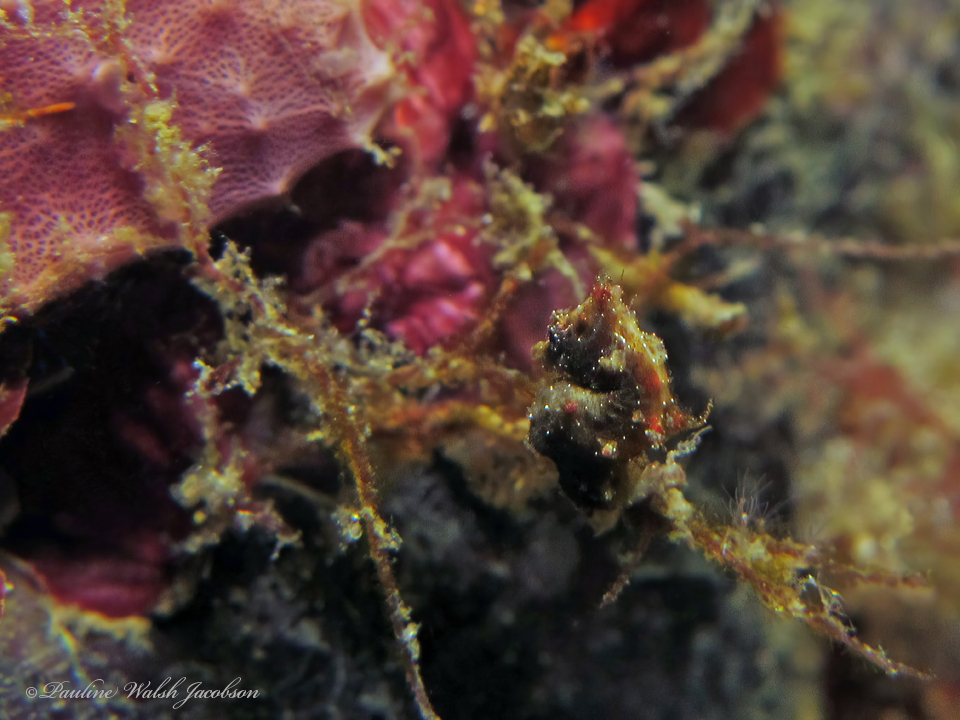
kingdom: Animalia
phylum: Chordata
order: Syngnathiformes
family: Syngnathidae
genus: Hippocampus
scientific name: Hippocampus pontohi
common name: Pontoh`s pygmy seahorse
